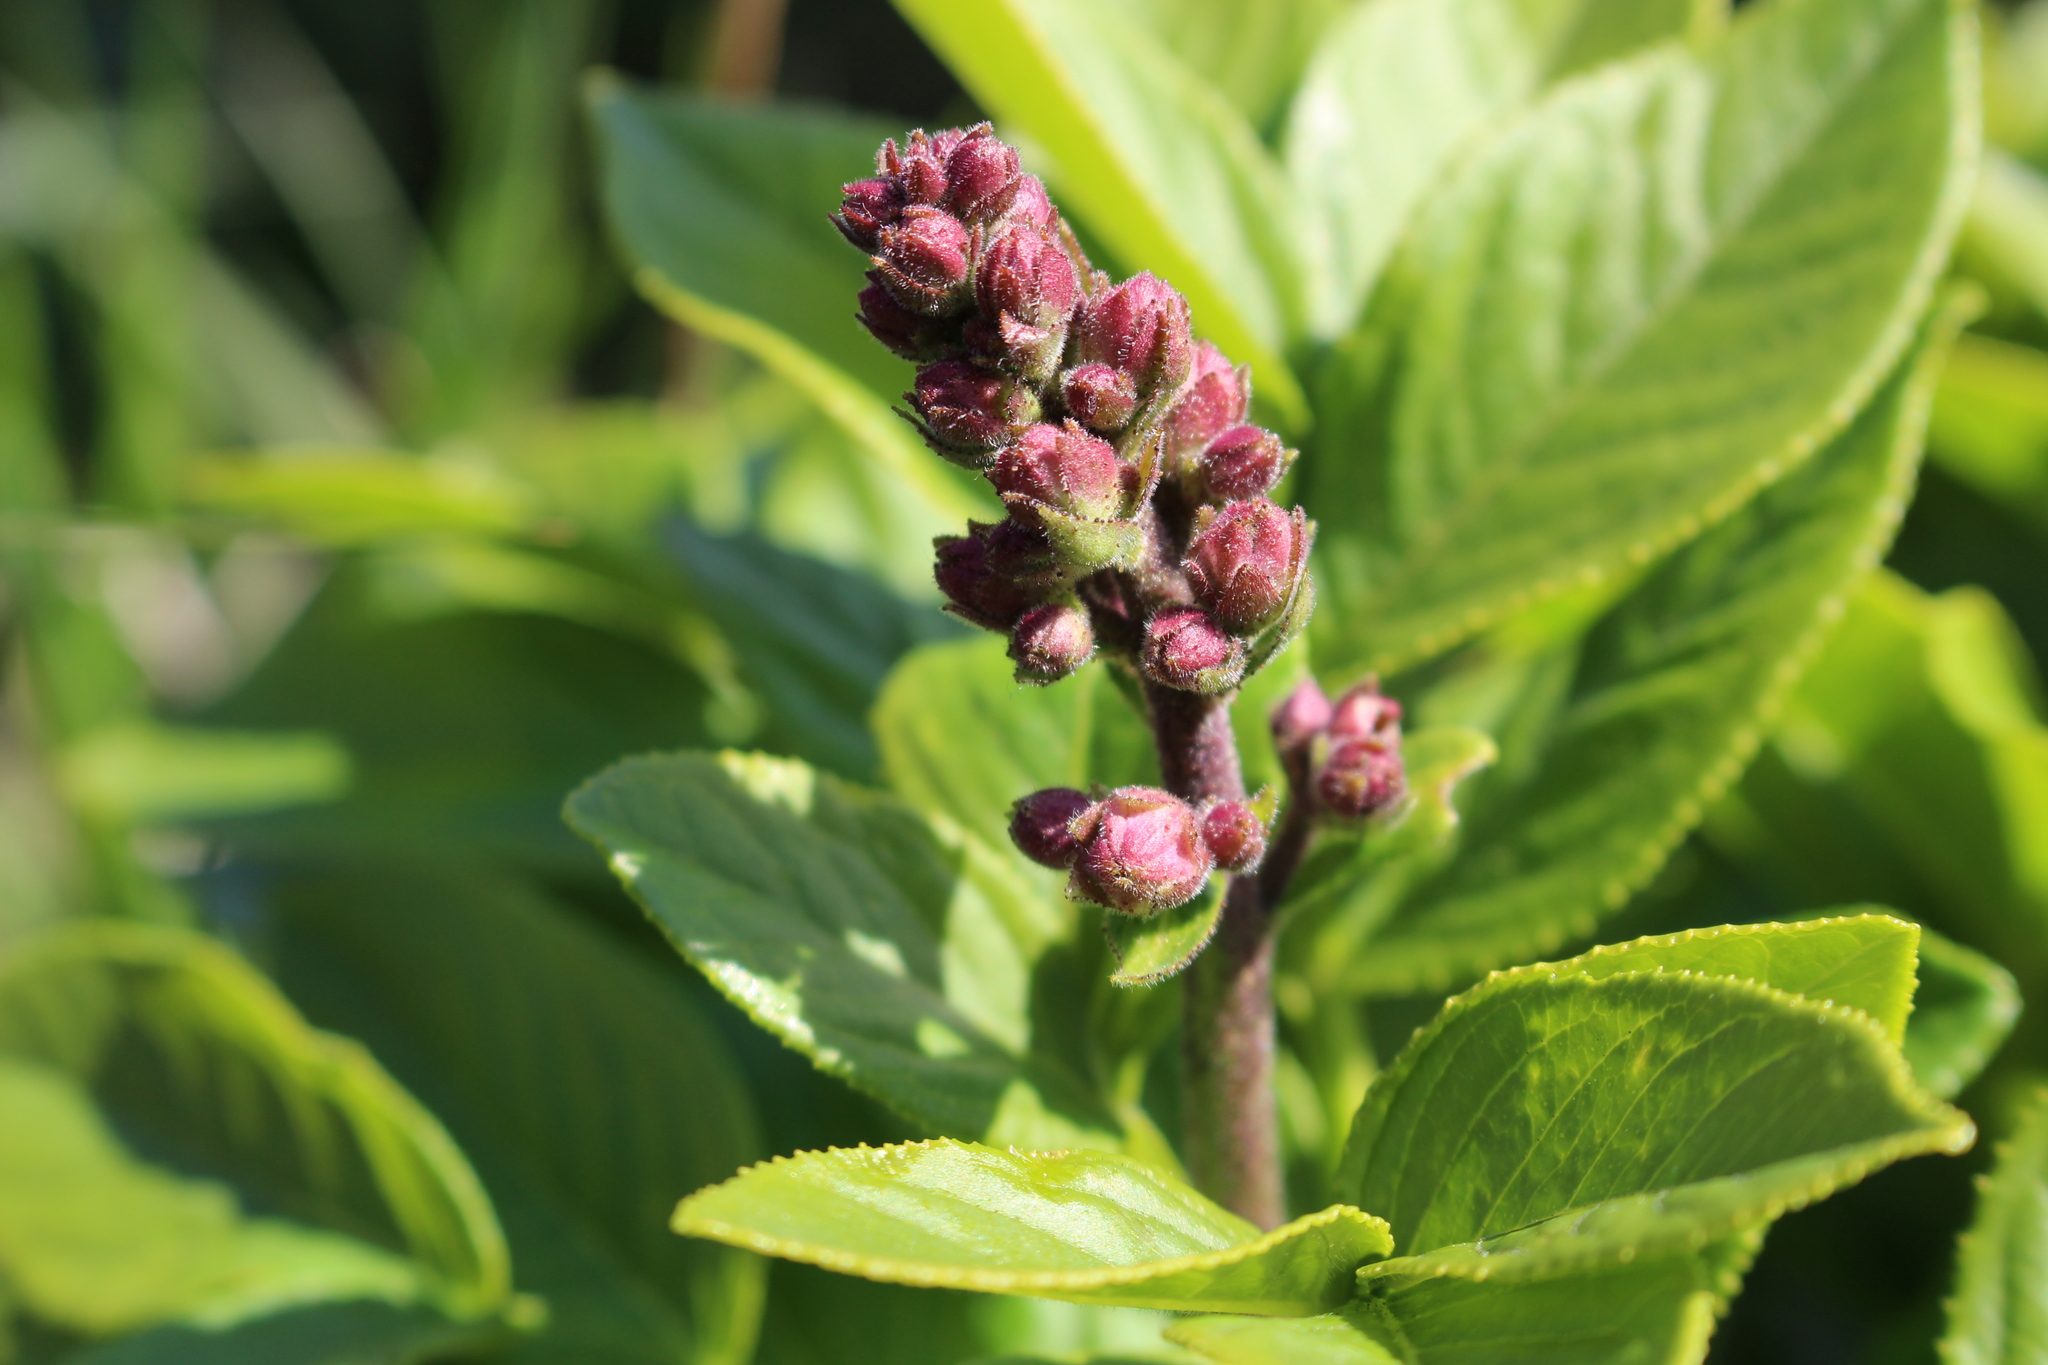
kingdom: Plantae
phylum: Tracheophyta
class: Magnoliopsida
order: Sapindales
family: Rutaceae
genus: Dictamnus
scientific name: Dictamnus albus
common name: Gasplant
